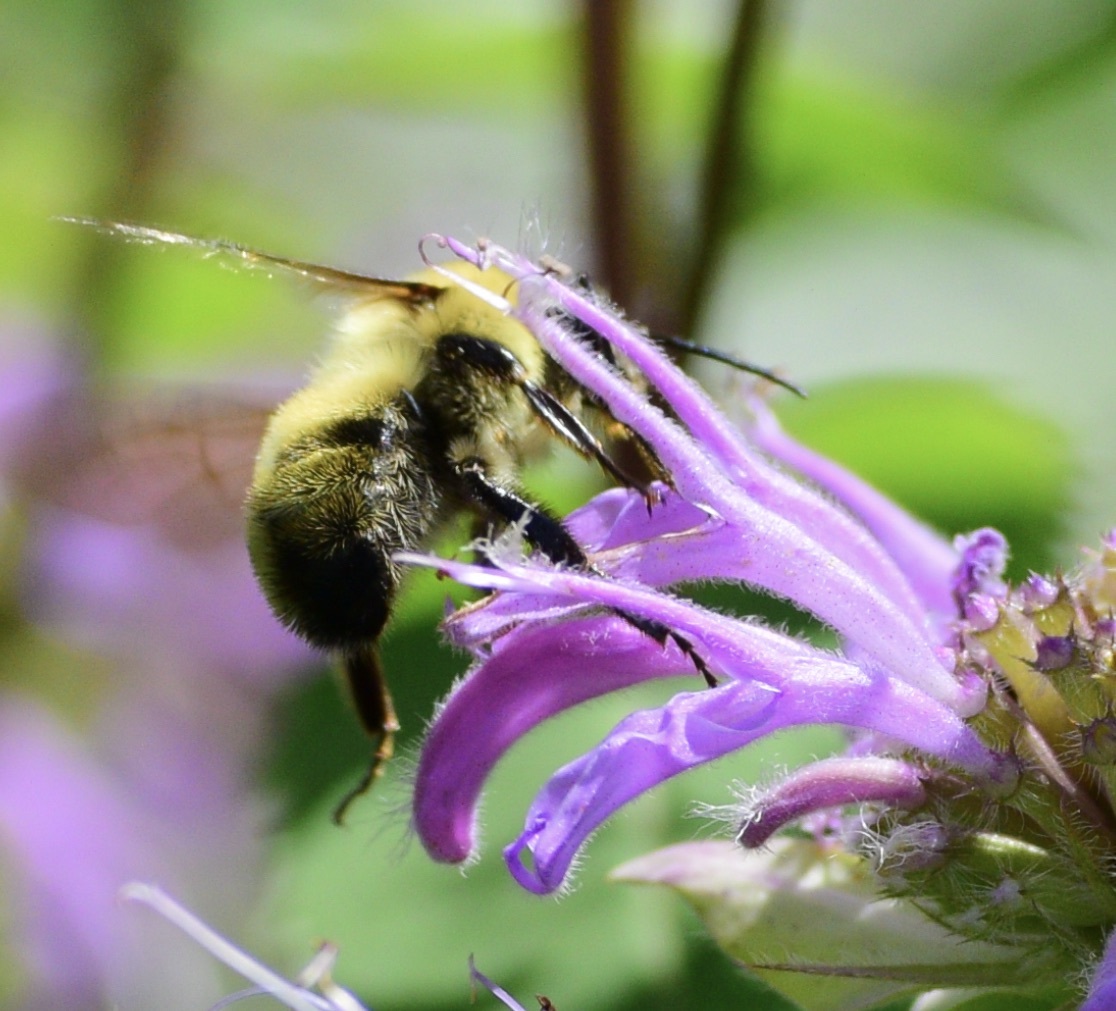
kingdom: Animalia
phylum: Arthropoda
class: Insecta
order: Hymenoptera
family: Apidae
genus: Pyrobombus
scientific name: Pyrobombus
